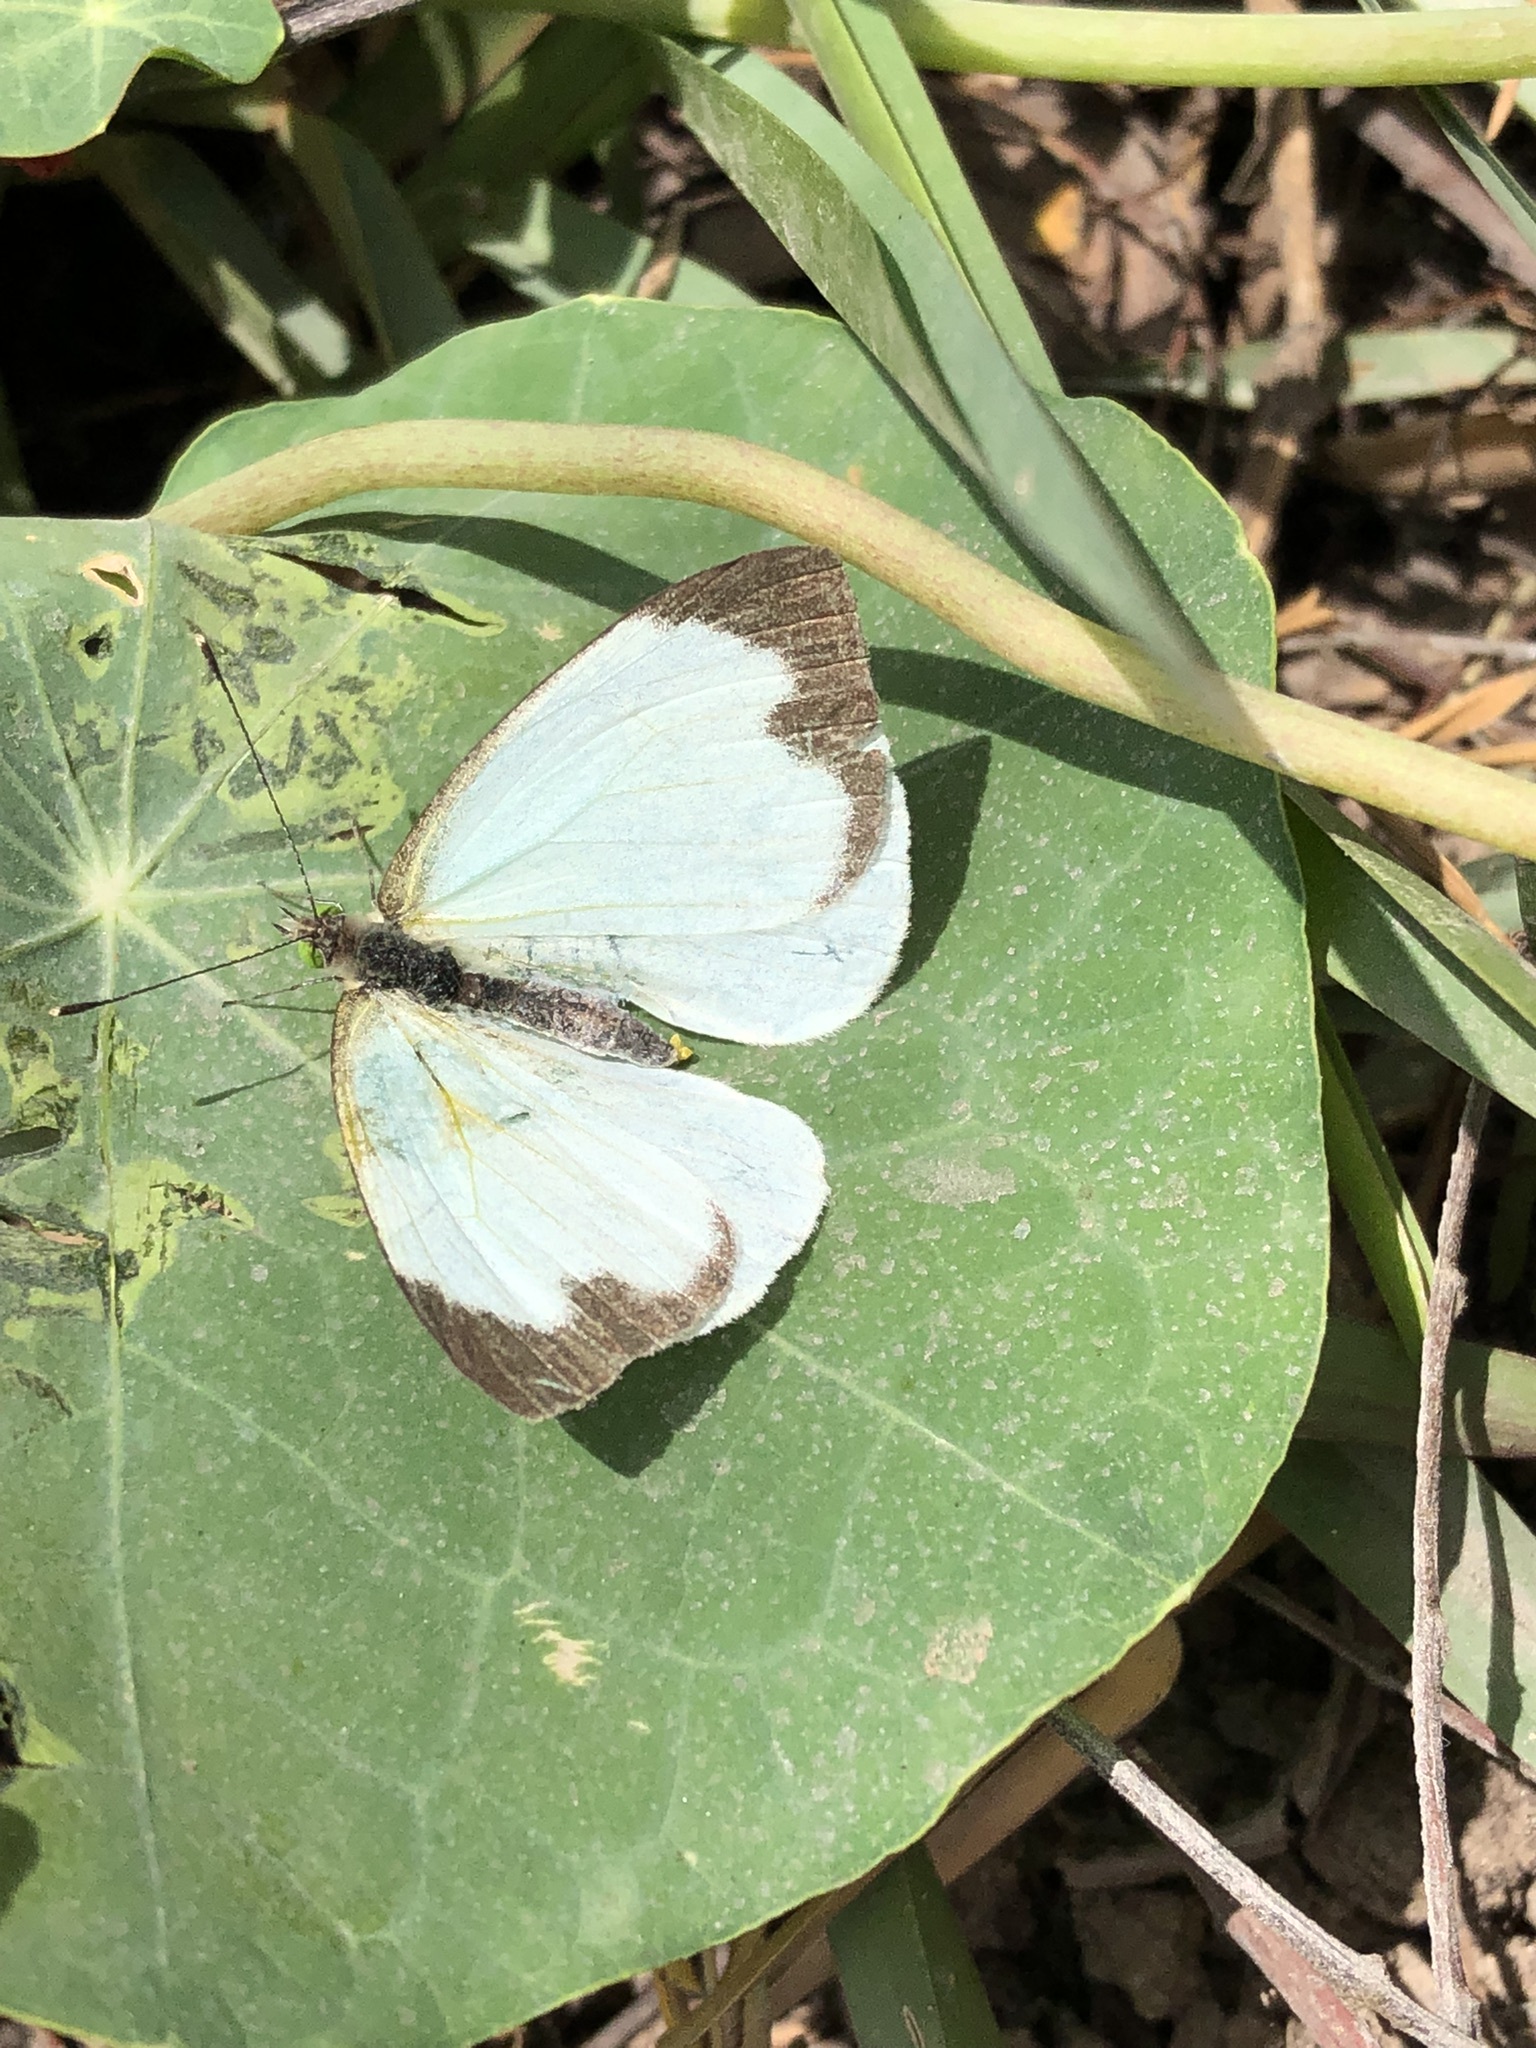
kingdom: Animalia
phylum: Arthropoda
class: Insecta
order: Lepidoptera
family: Pieridae
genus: Leptophobia
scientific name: Leptophobia aripa
